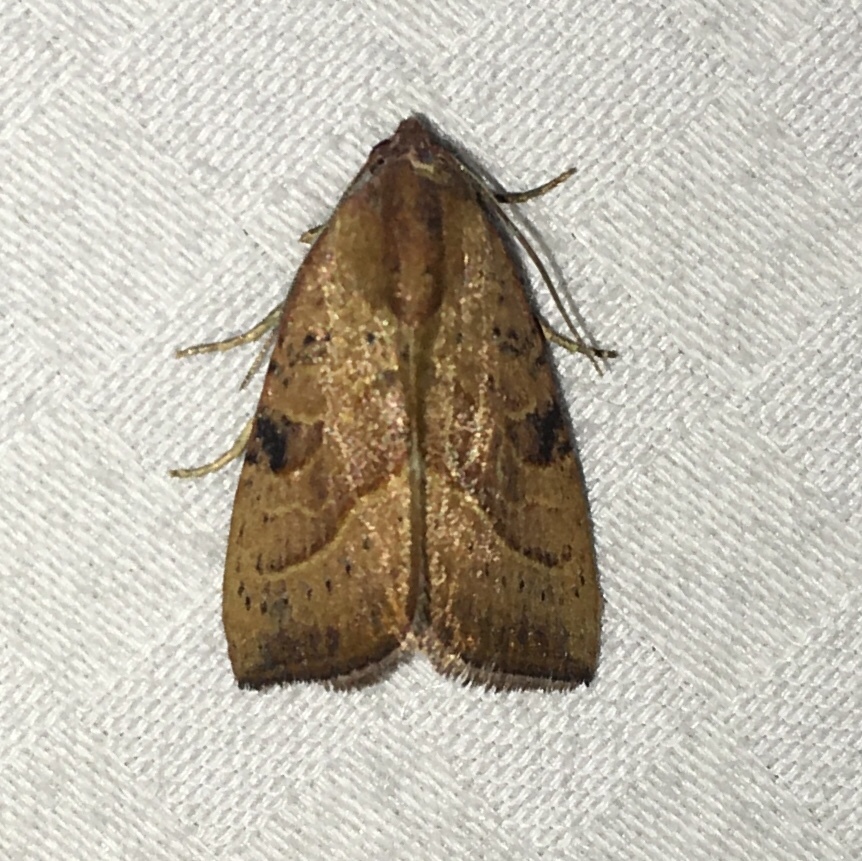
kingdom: Animalia
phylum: Arthropoda
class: Insecta
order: Lepidoptera
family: Noctuidae
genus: Galgula
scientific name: Galgula partita
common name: Wedgeling
